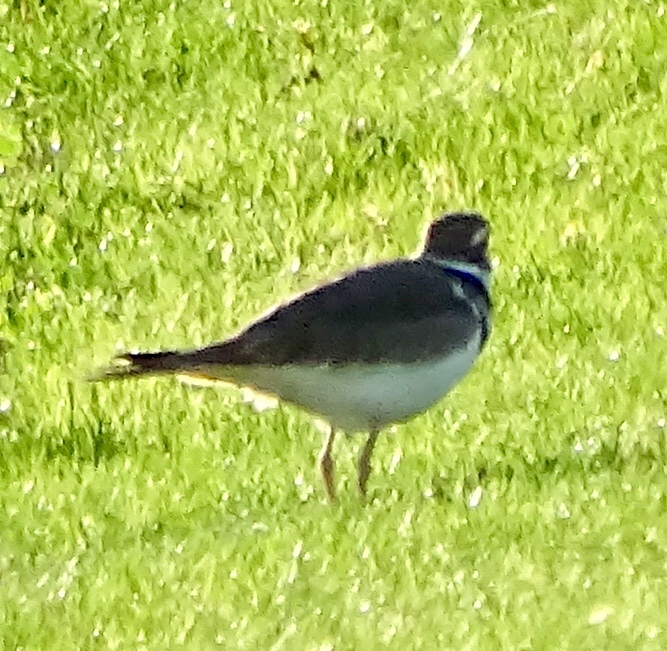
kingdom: Animalia
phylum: Chordata
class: Aves
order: Charadriiformes
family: Charadriidae
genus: Charadrius
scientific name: Charadrius vociferus
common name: Killdeer
